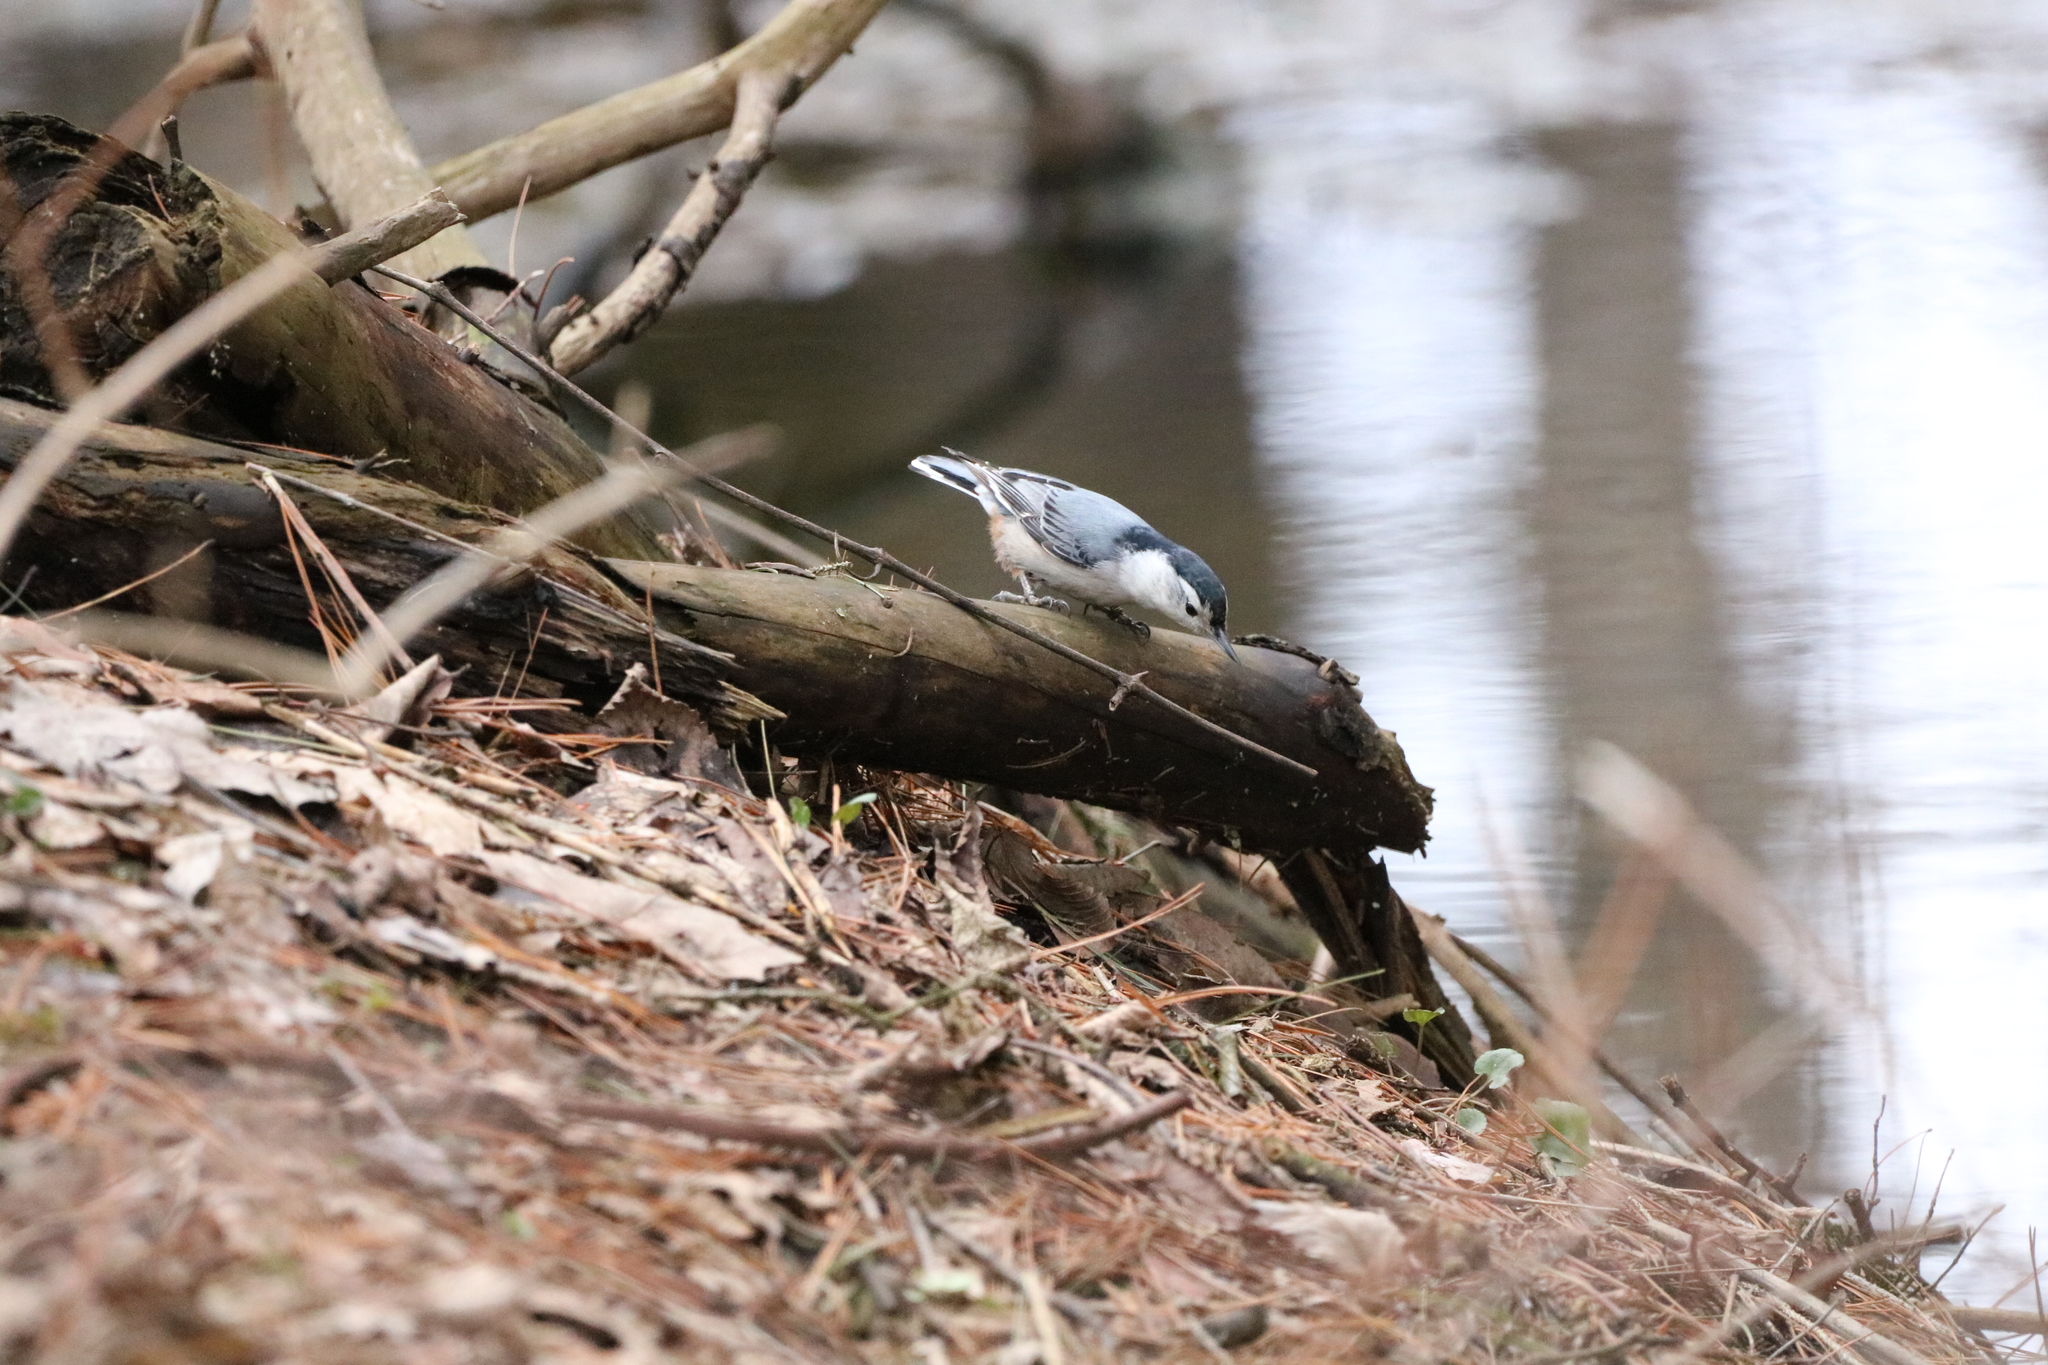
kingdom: Animalia
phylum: Chordata
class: Aves
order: Passeriformes
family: Sittidae
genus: Sitta
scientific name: Sitta carolinensis
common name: White-breasted nuthatch
